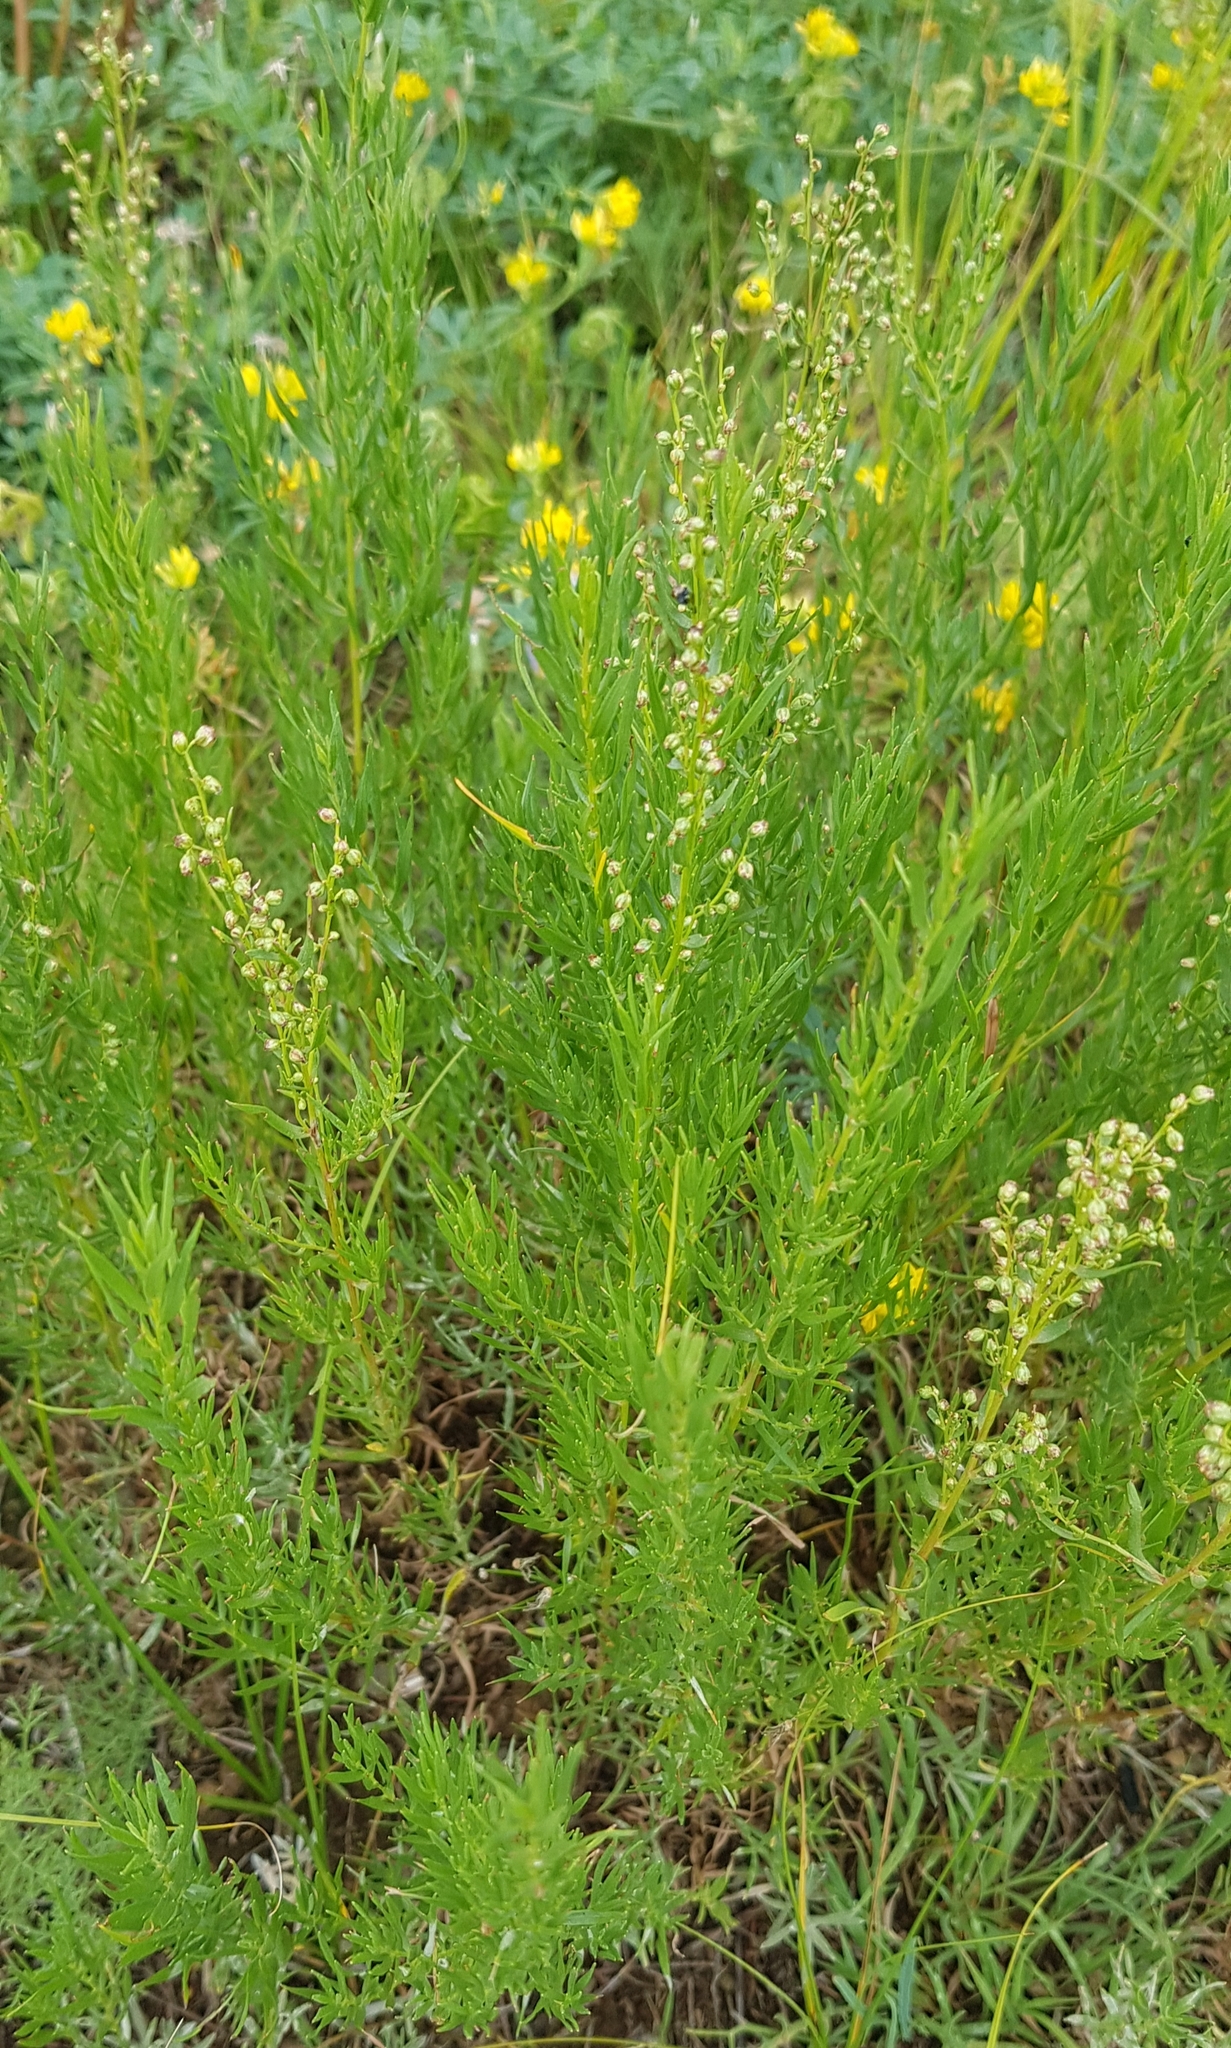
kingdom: Plantae
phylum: Tracheophyta
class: Magnoliopsida
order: Asterales
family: Asteraceae
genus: Artemisia
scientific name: Artemisia dracunculus
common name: Tarragon
